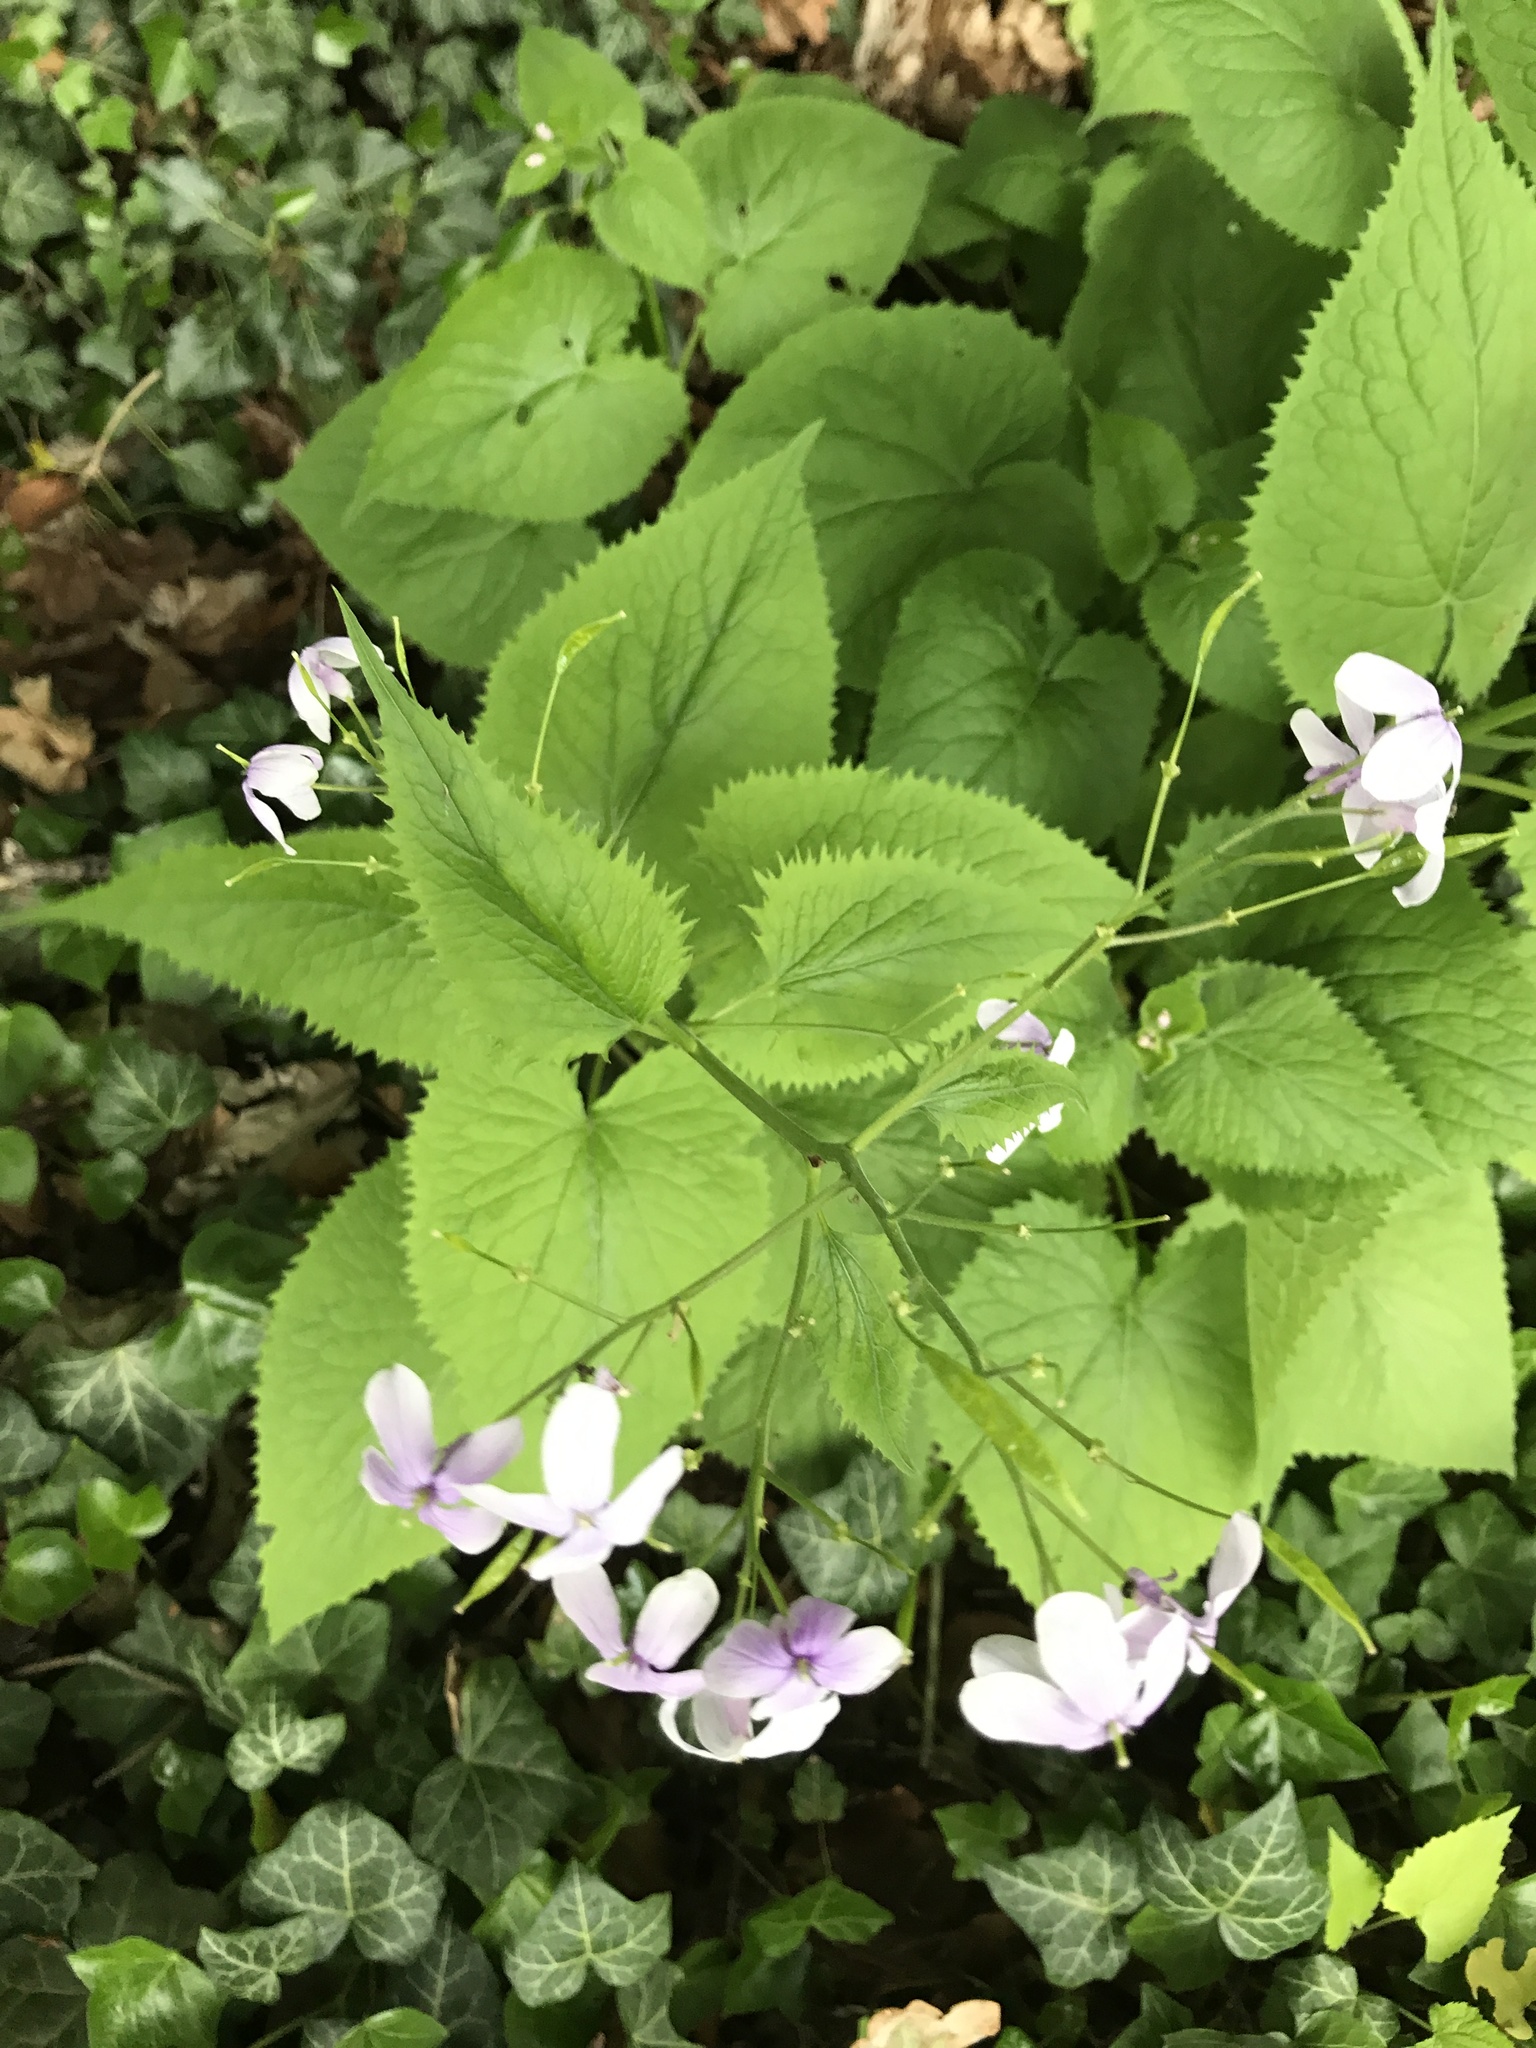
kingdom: Plantae
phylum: Tracheophyta
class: Magnoliopsida
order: Brassicales
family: Brassicaceae
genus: Lunaria
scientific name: Lunaria rediviva
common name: Perennial honesty
